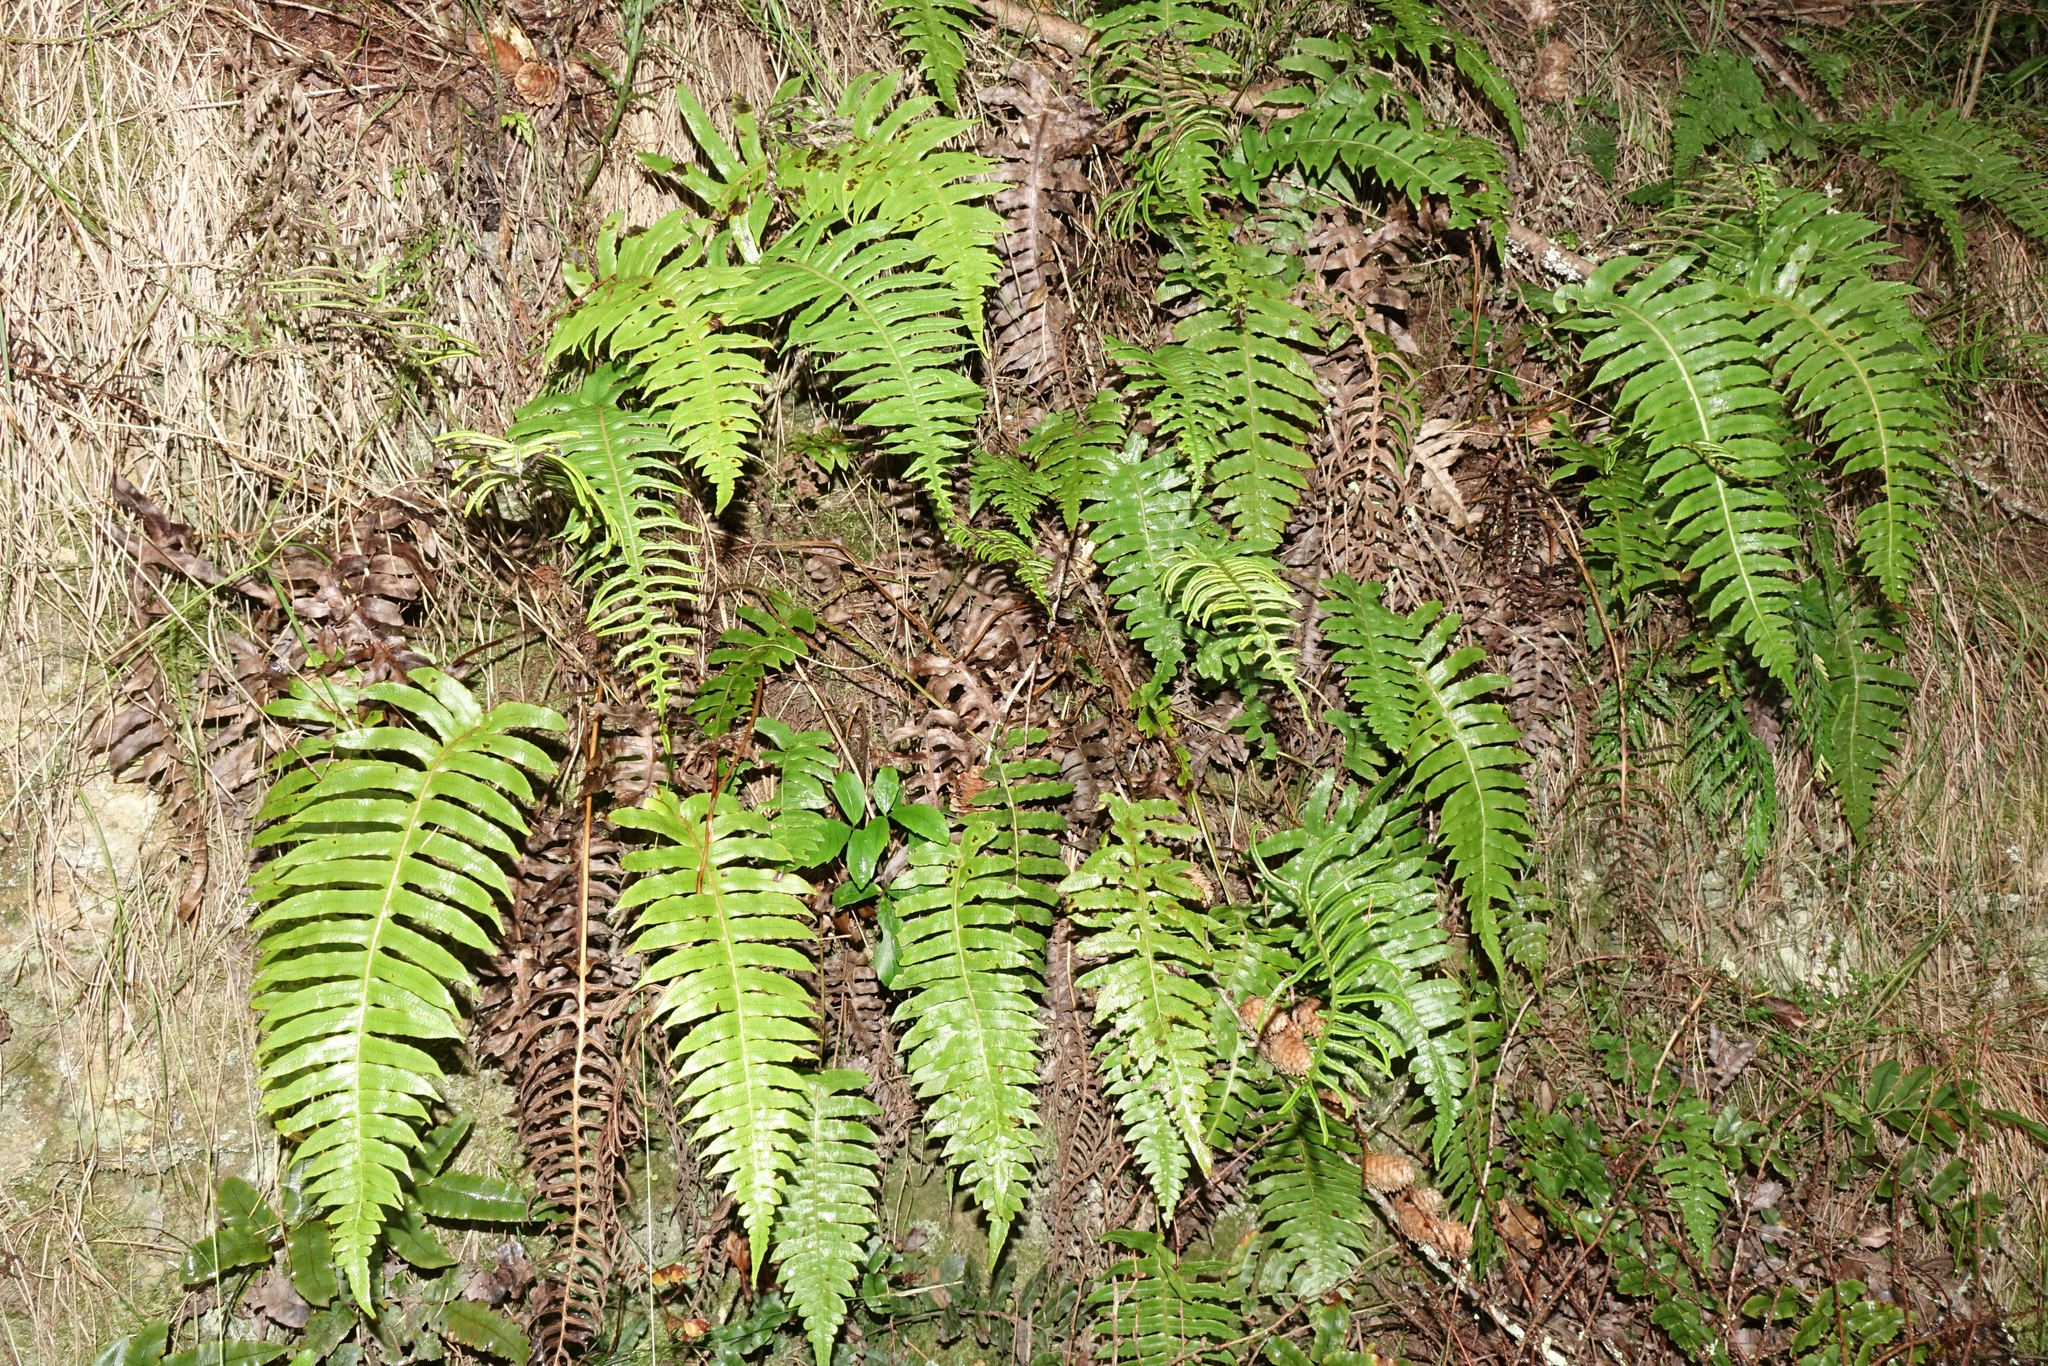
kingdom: Plantae
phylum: Tracheophyta
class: Polypodiopsida
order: Polypodiales
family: Blechnaceae
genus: Cranfillia
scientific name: Cranfillia vulcanica
